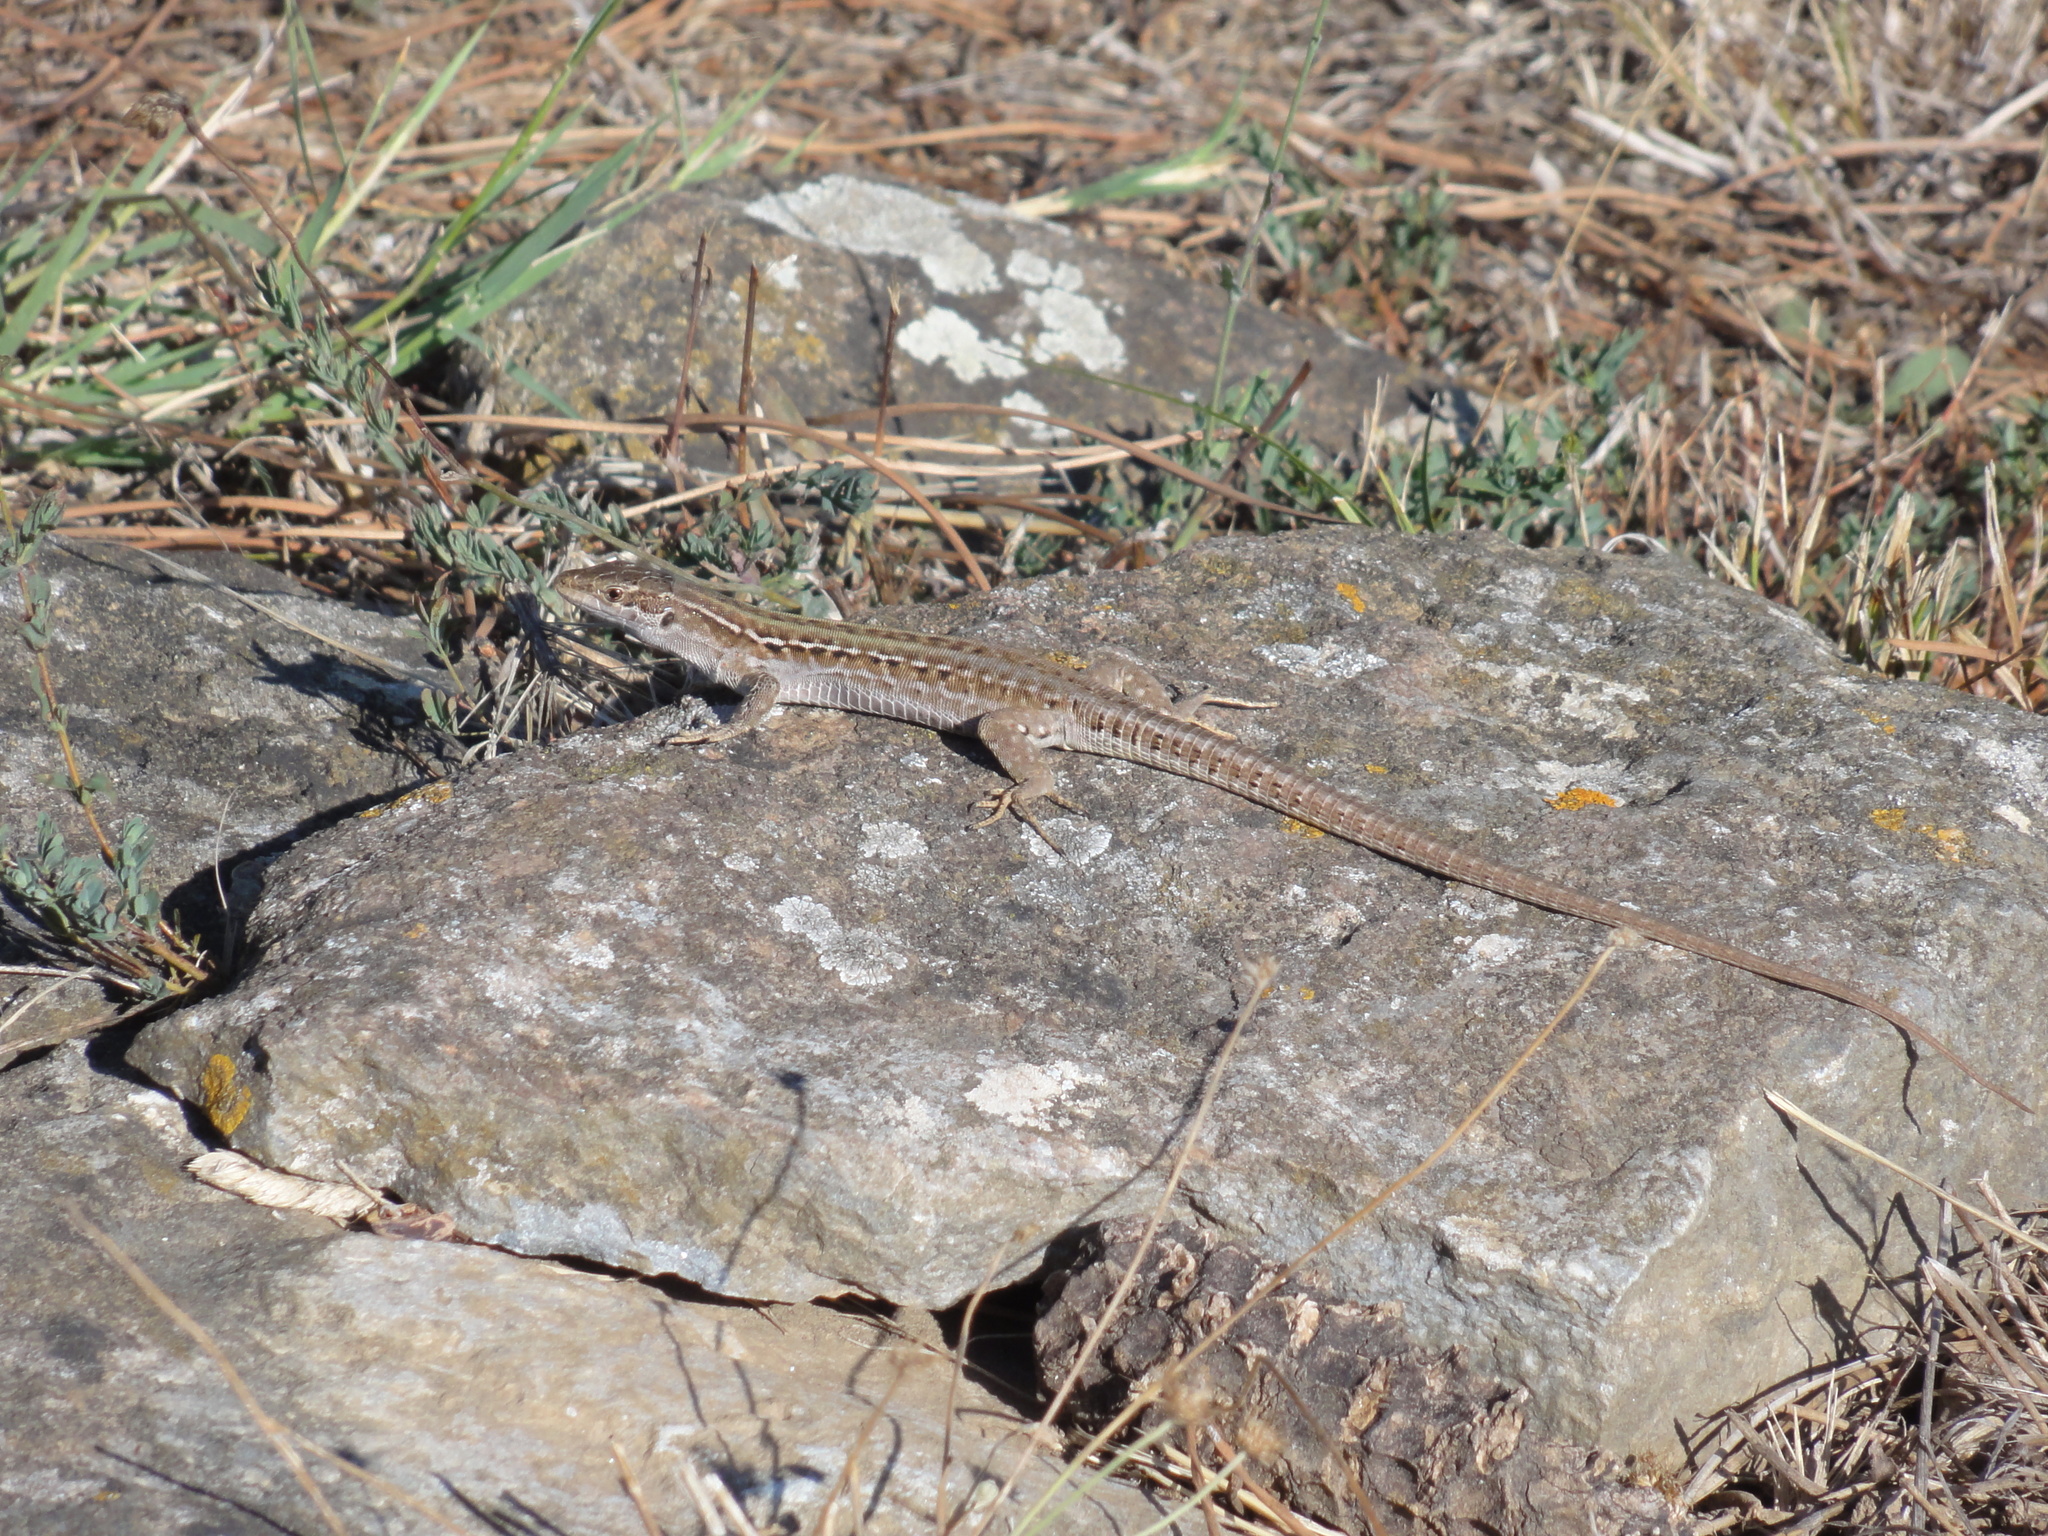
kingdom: Animalia
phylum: Chordata
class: Squamata
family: Lacertidae
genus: Podarcis
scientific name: Podarcis siculus
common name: Italian wall lizard
